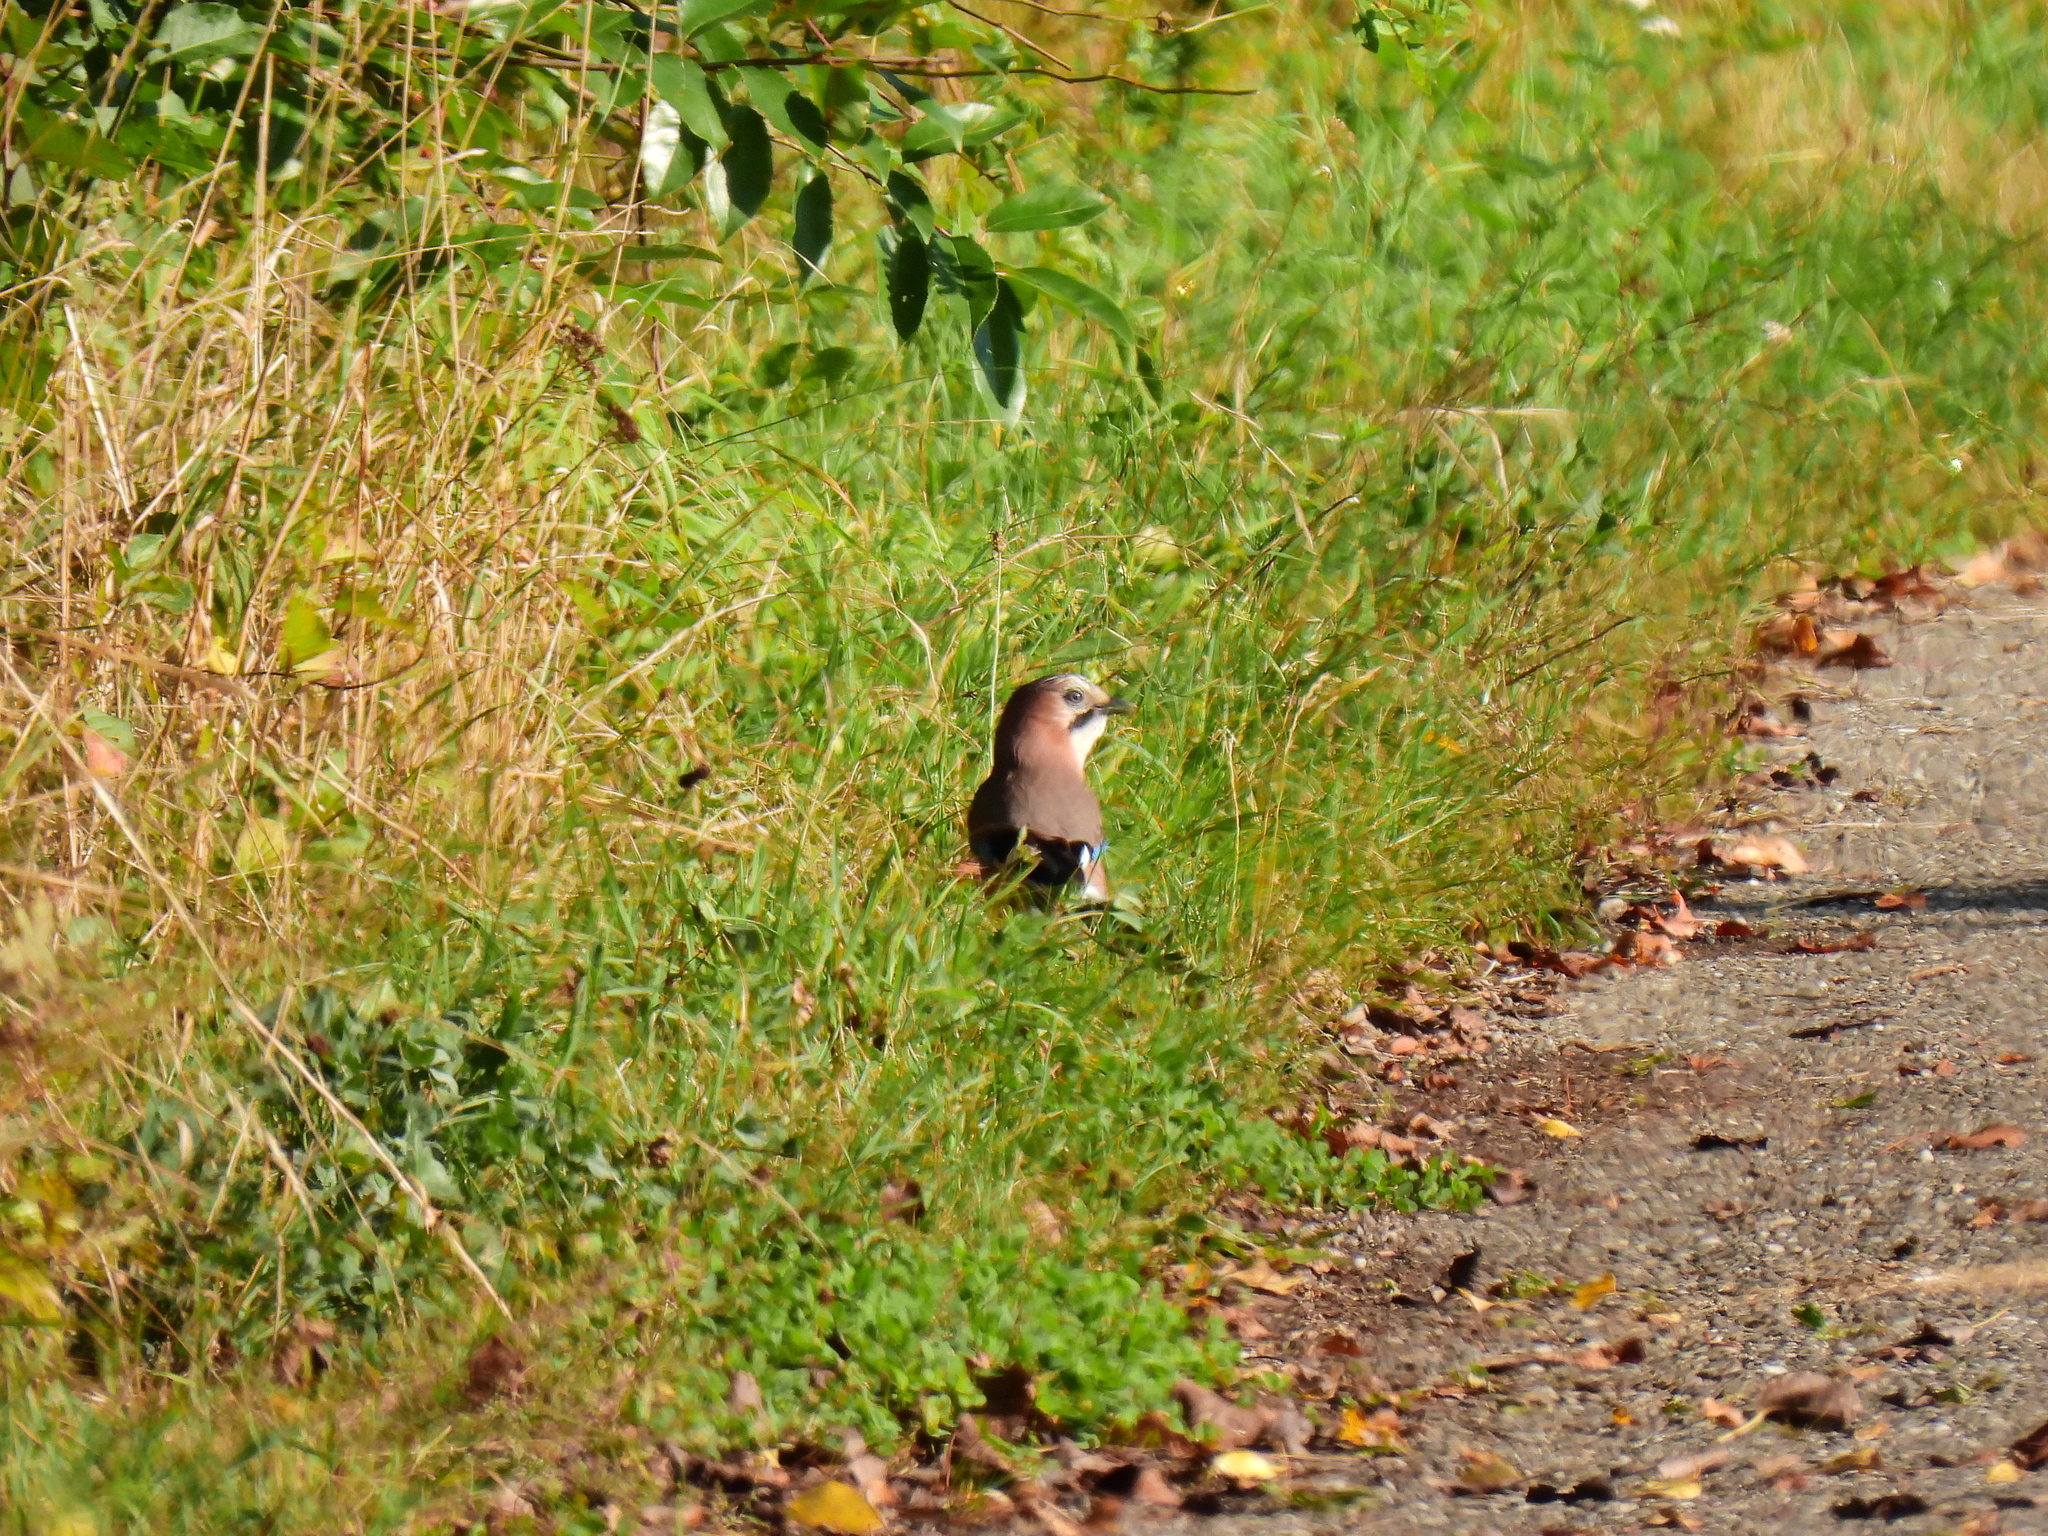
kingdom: Animalia
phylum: Chordata
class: Aves
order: Passeriformes
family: Corvidae
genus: Garrulus
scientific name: Garrulus glandarius
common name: Eurasian jay
